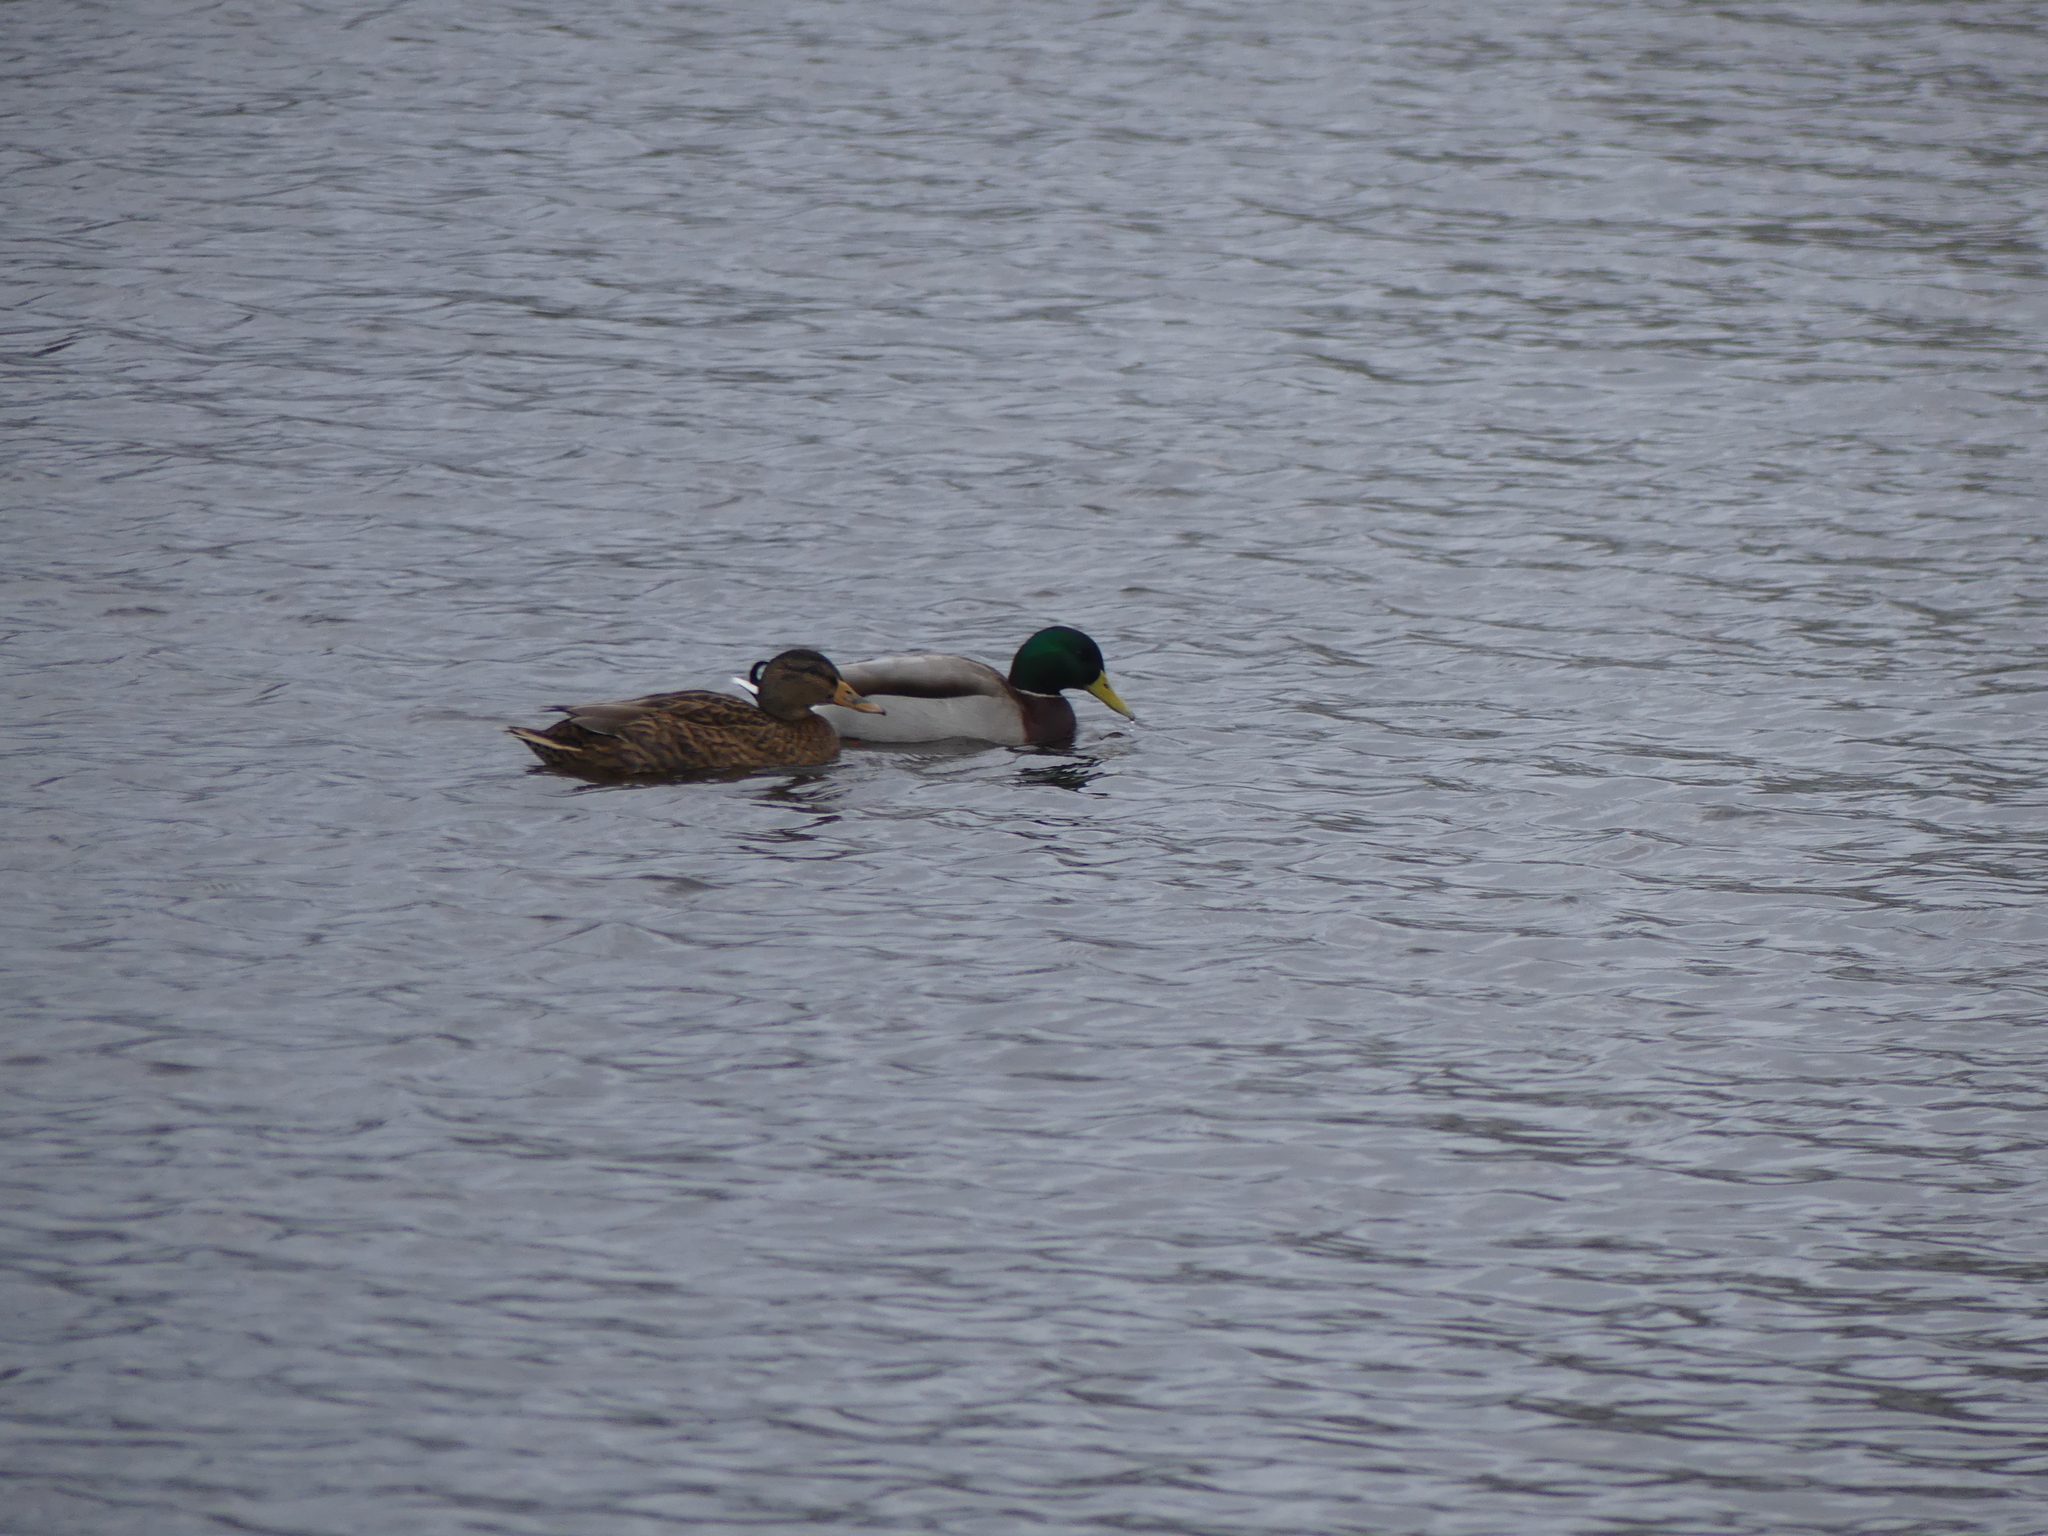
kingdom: Animalia
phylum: Chordata
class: Aves
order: Anseriformes
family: Anatidae
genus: Anas
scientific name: Anas platyrhynchos
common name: Mallard
